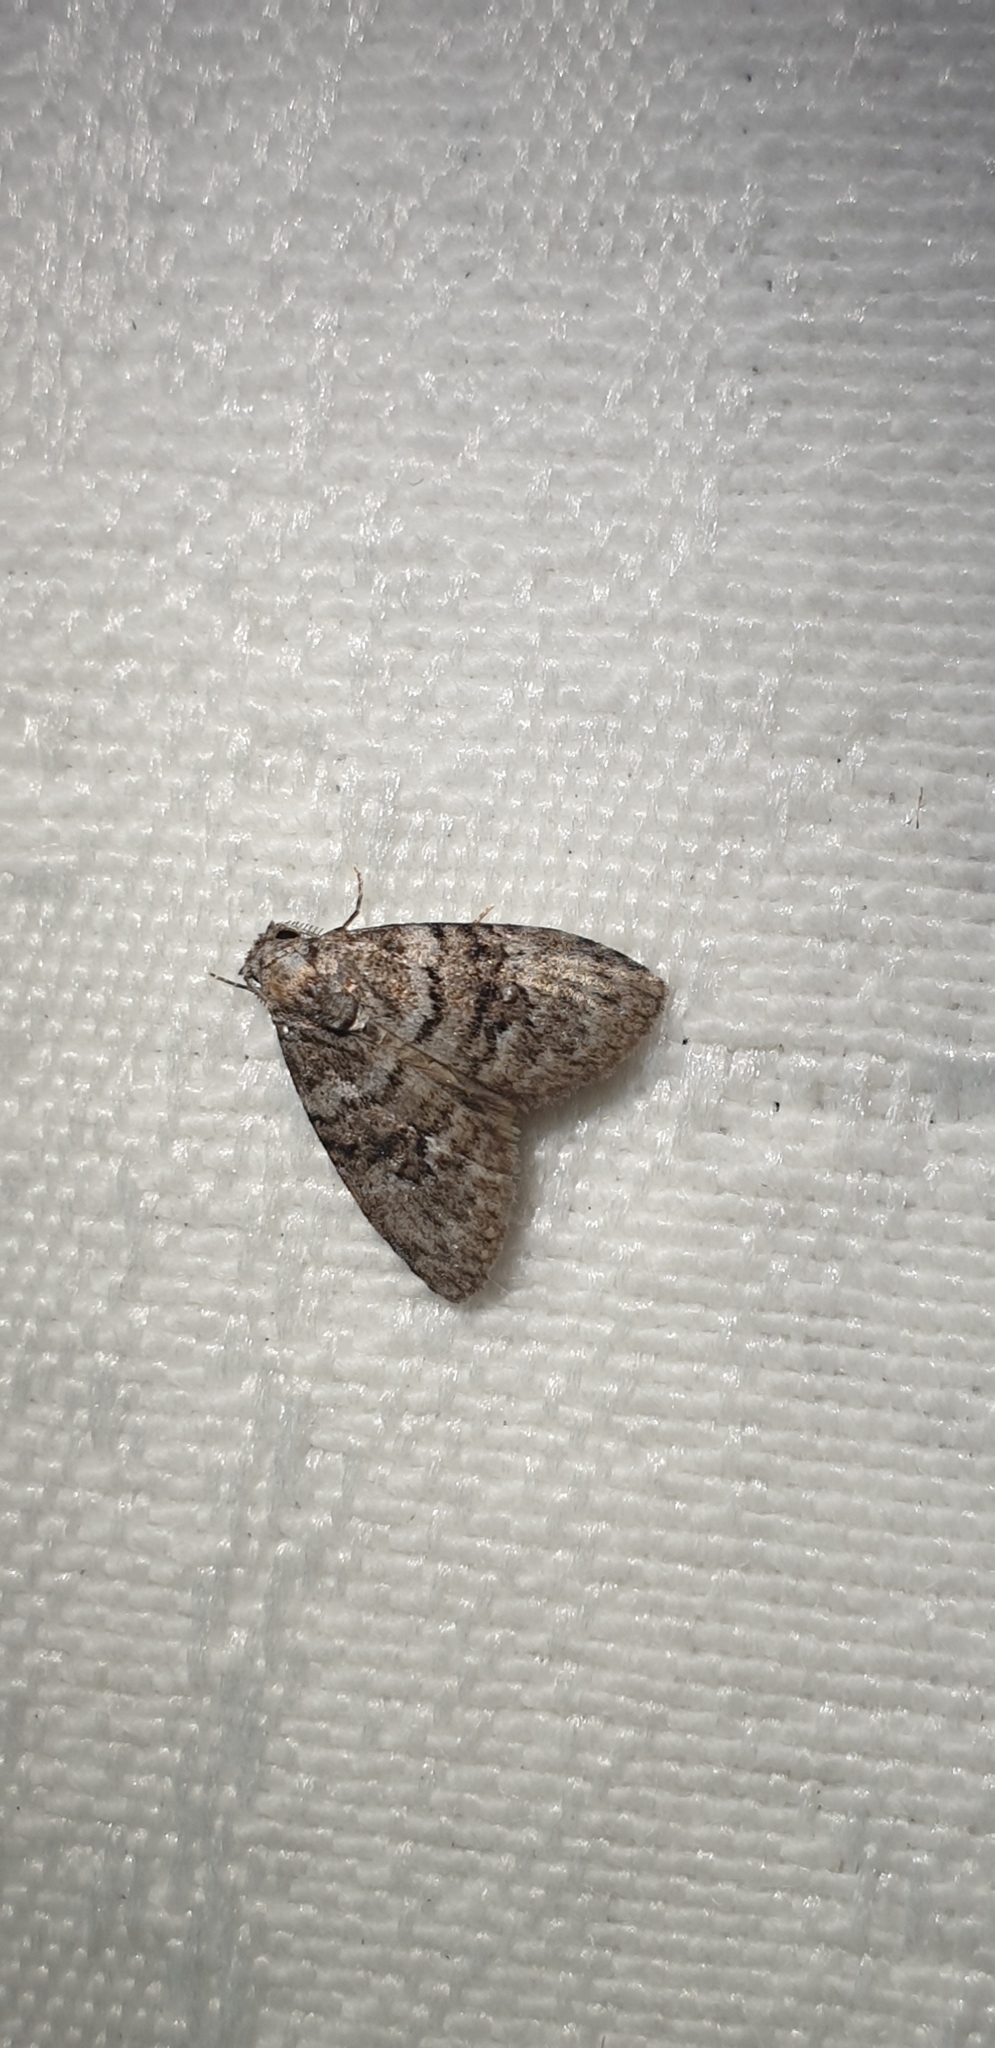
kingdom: Animalia
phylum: Arthropoda
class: Insecta
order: Lepidoptera
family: Nolidae
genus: Uraba
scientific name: Uraba lugens
